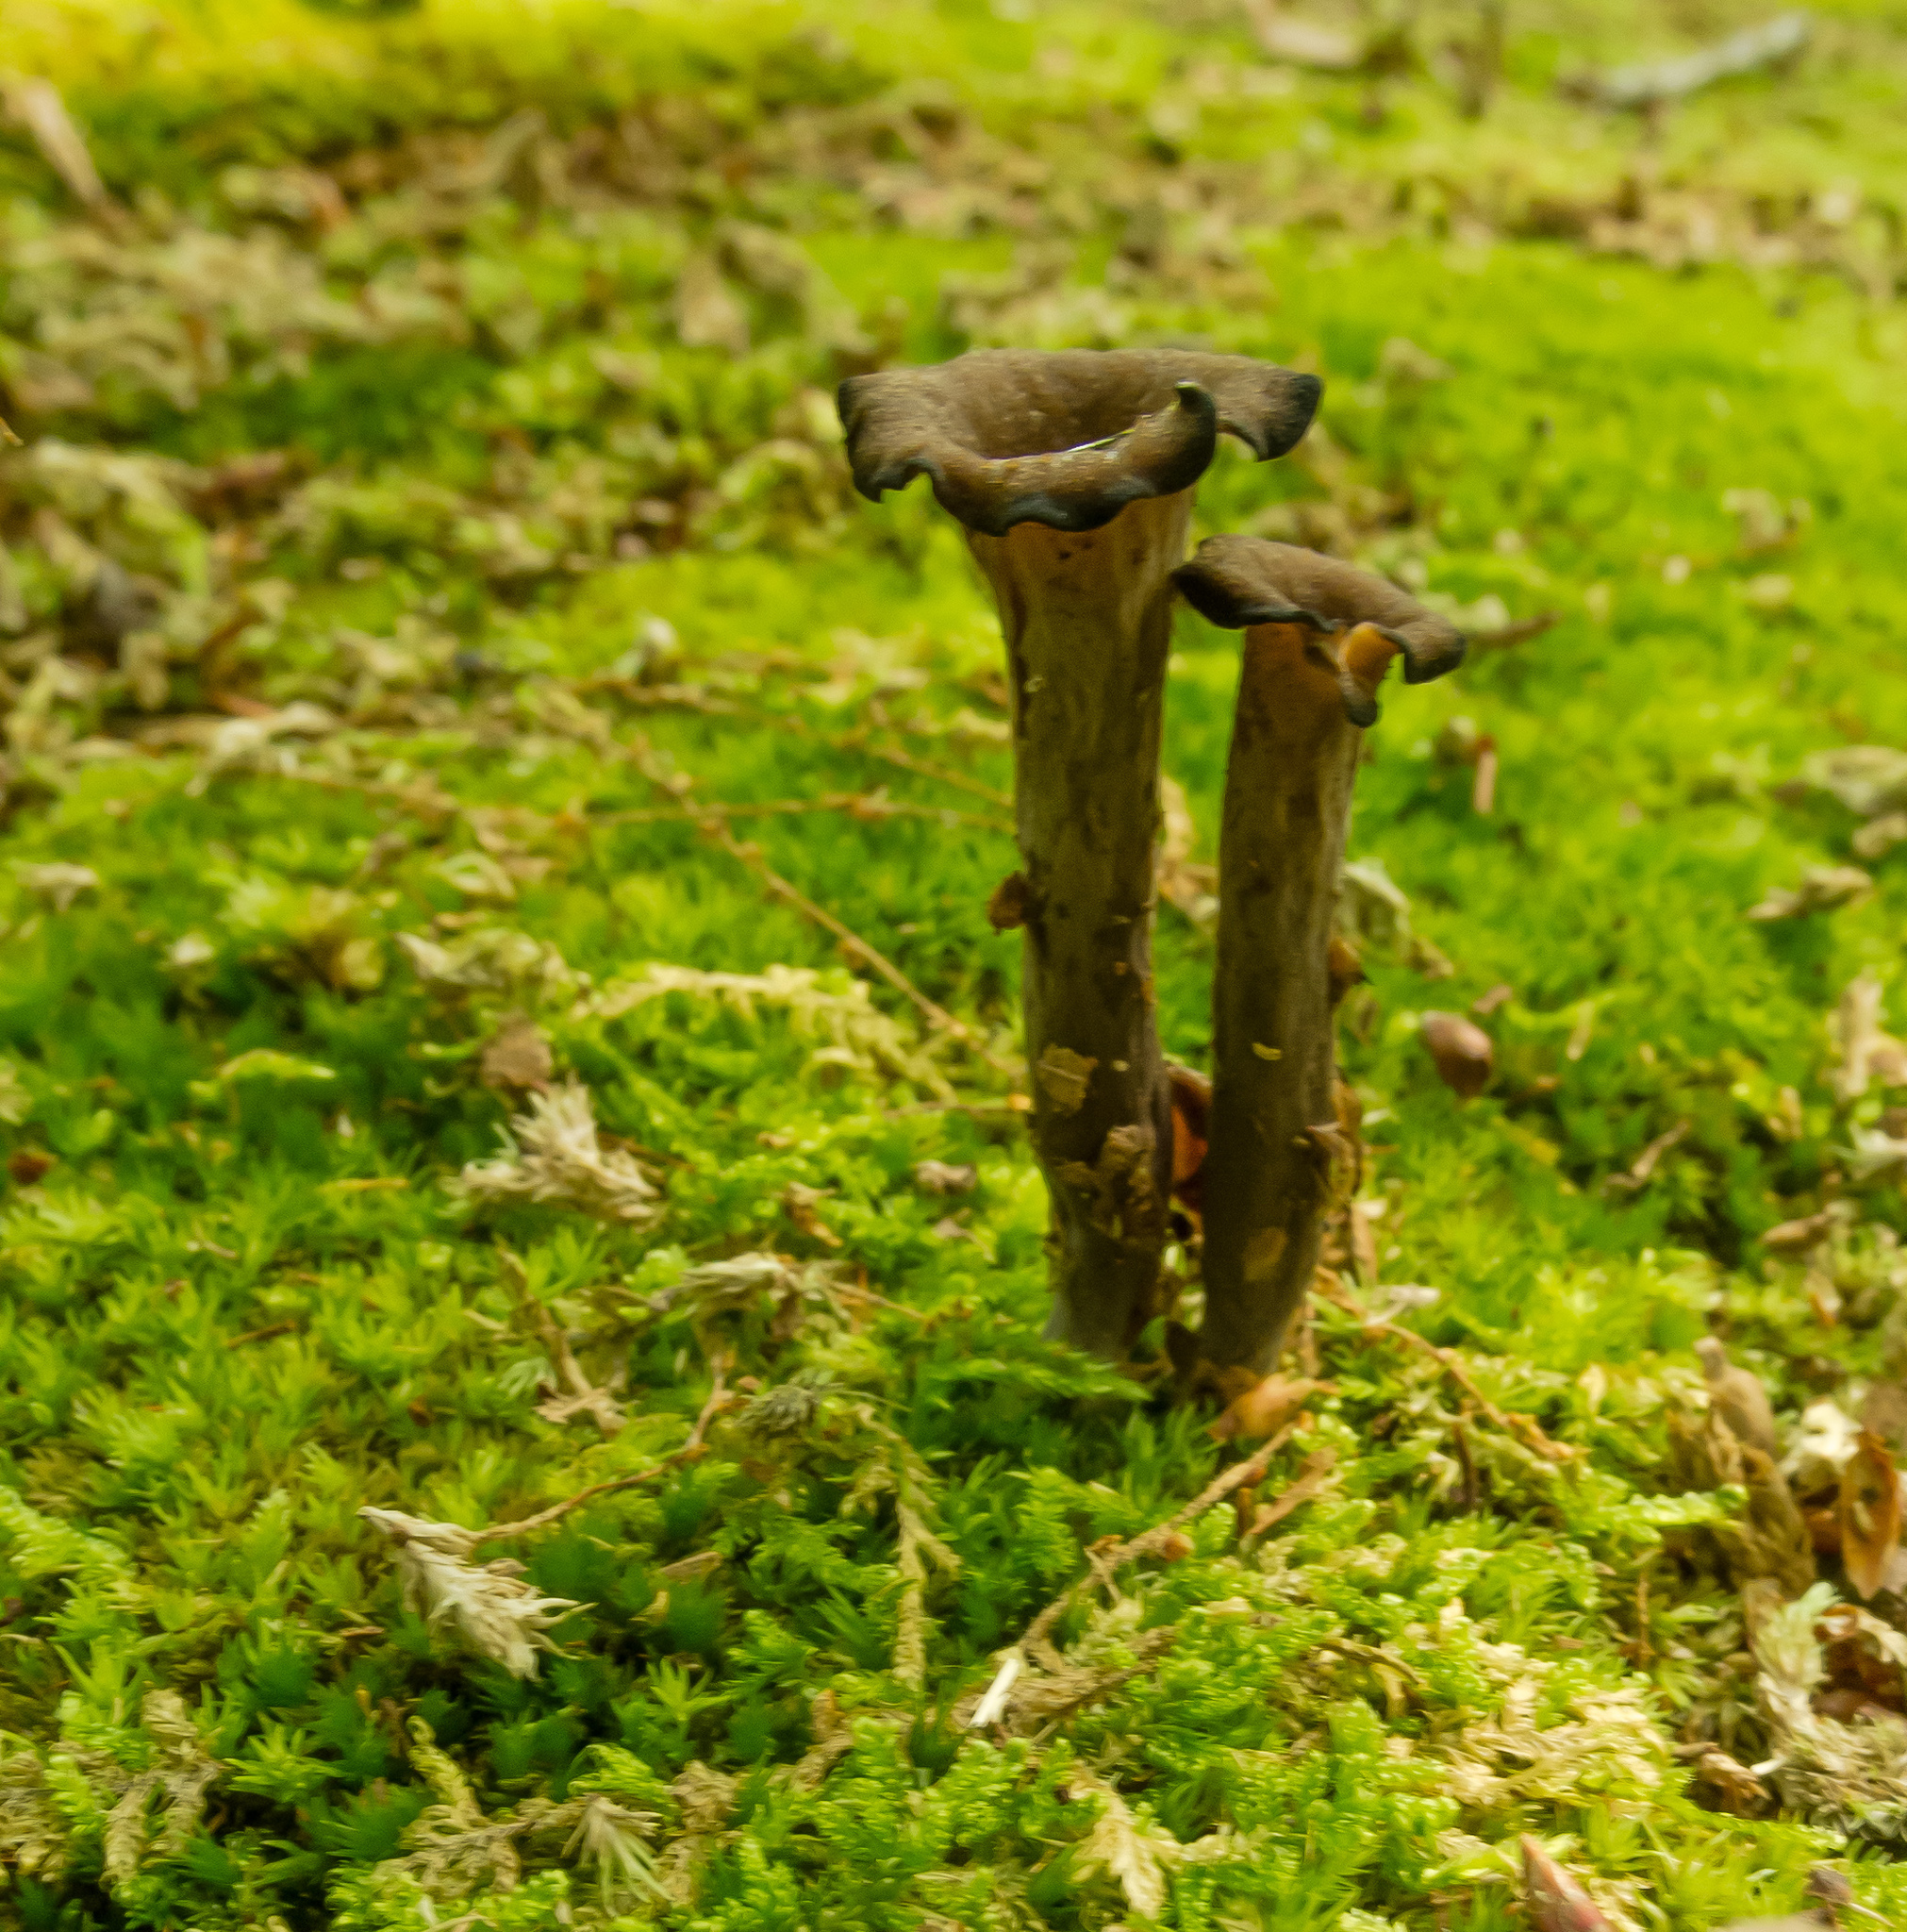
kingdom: Fungi
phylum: Basidiomycota
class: Agaricomycetes
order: Cantharellales
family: Hydnaceae
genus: Craterellus
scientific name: Craterellus cornucopioides
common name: Horn of plenty
